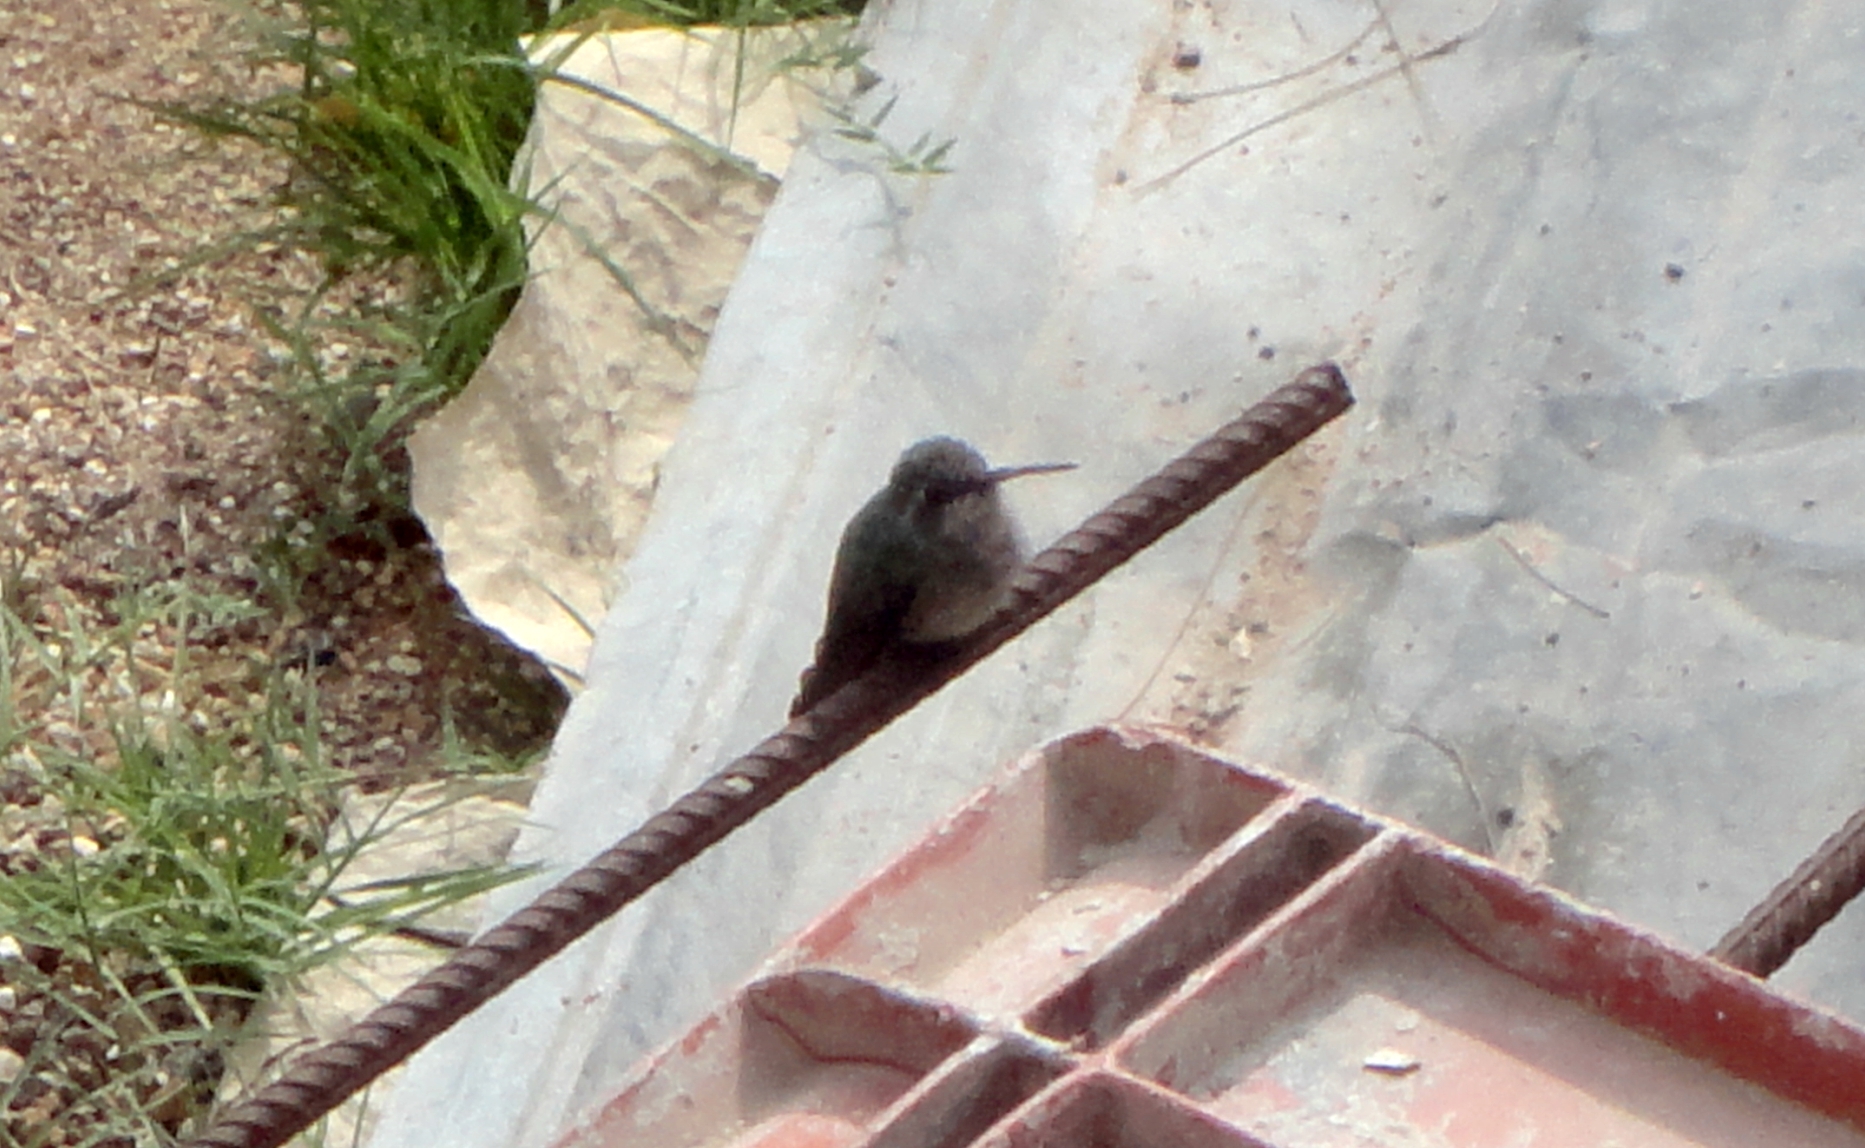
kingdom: Animalia
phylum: Chordata
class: Aves
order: Apodiformes
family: Trochilidae
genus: Cynanthus
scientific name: Cynanthus latirostris
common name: Broad-billed hummingbird
